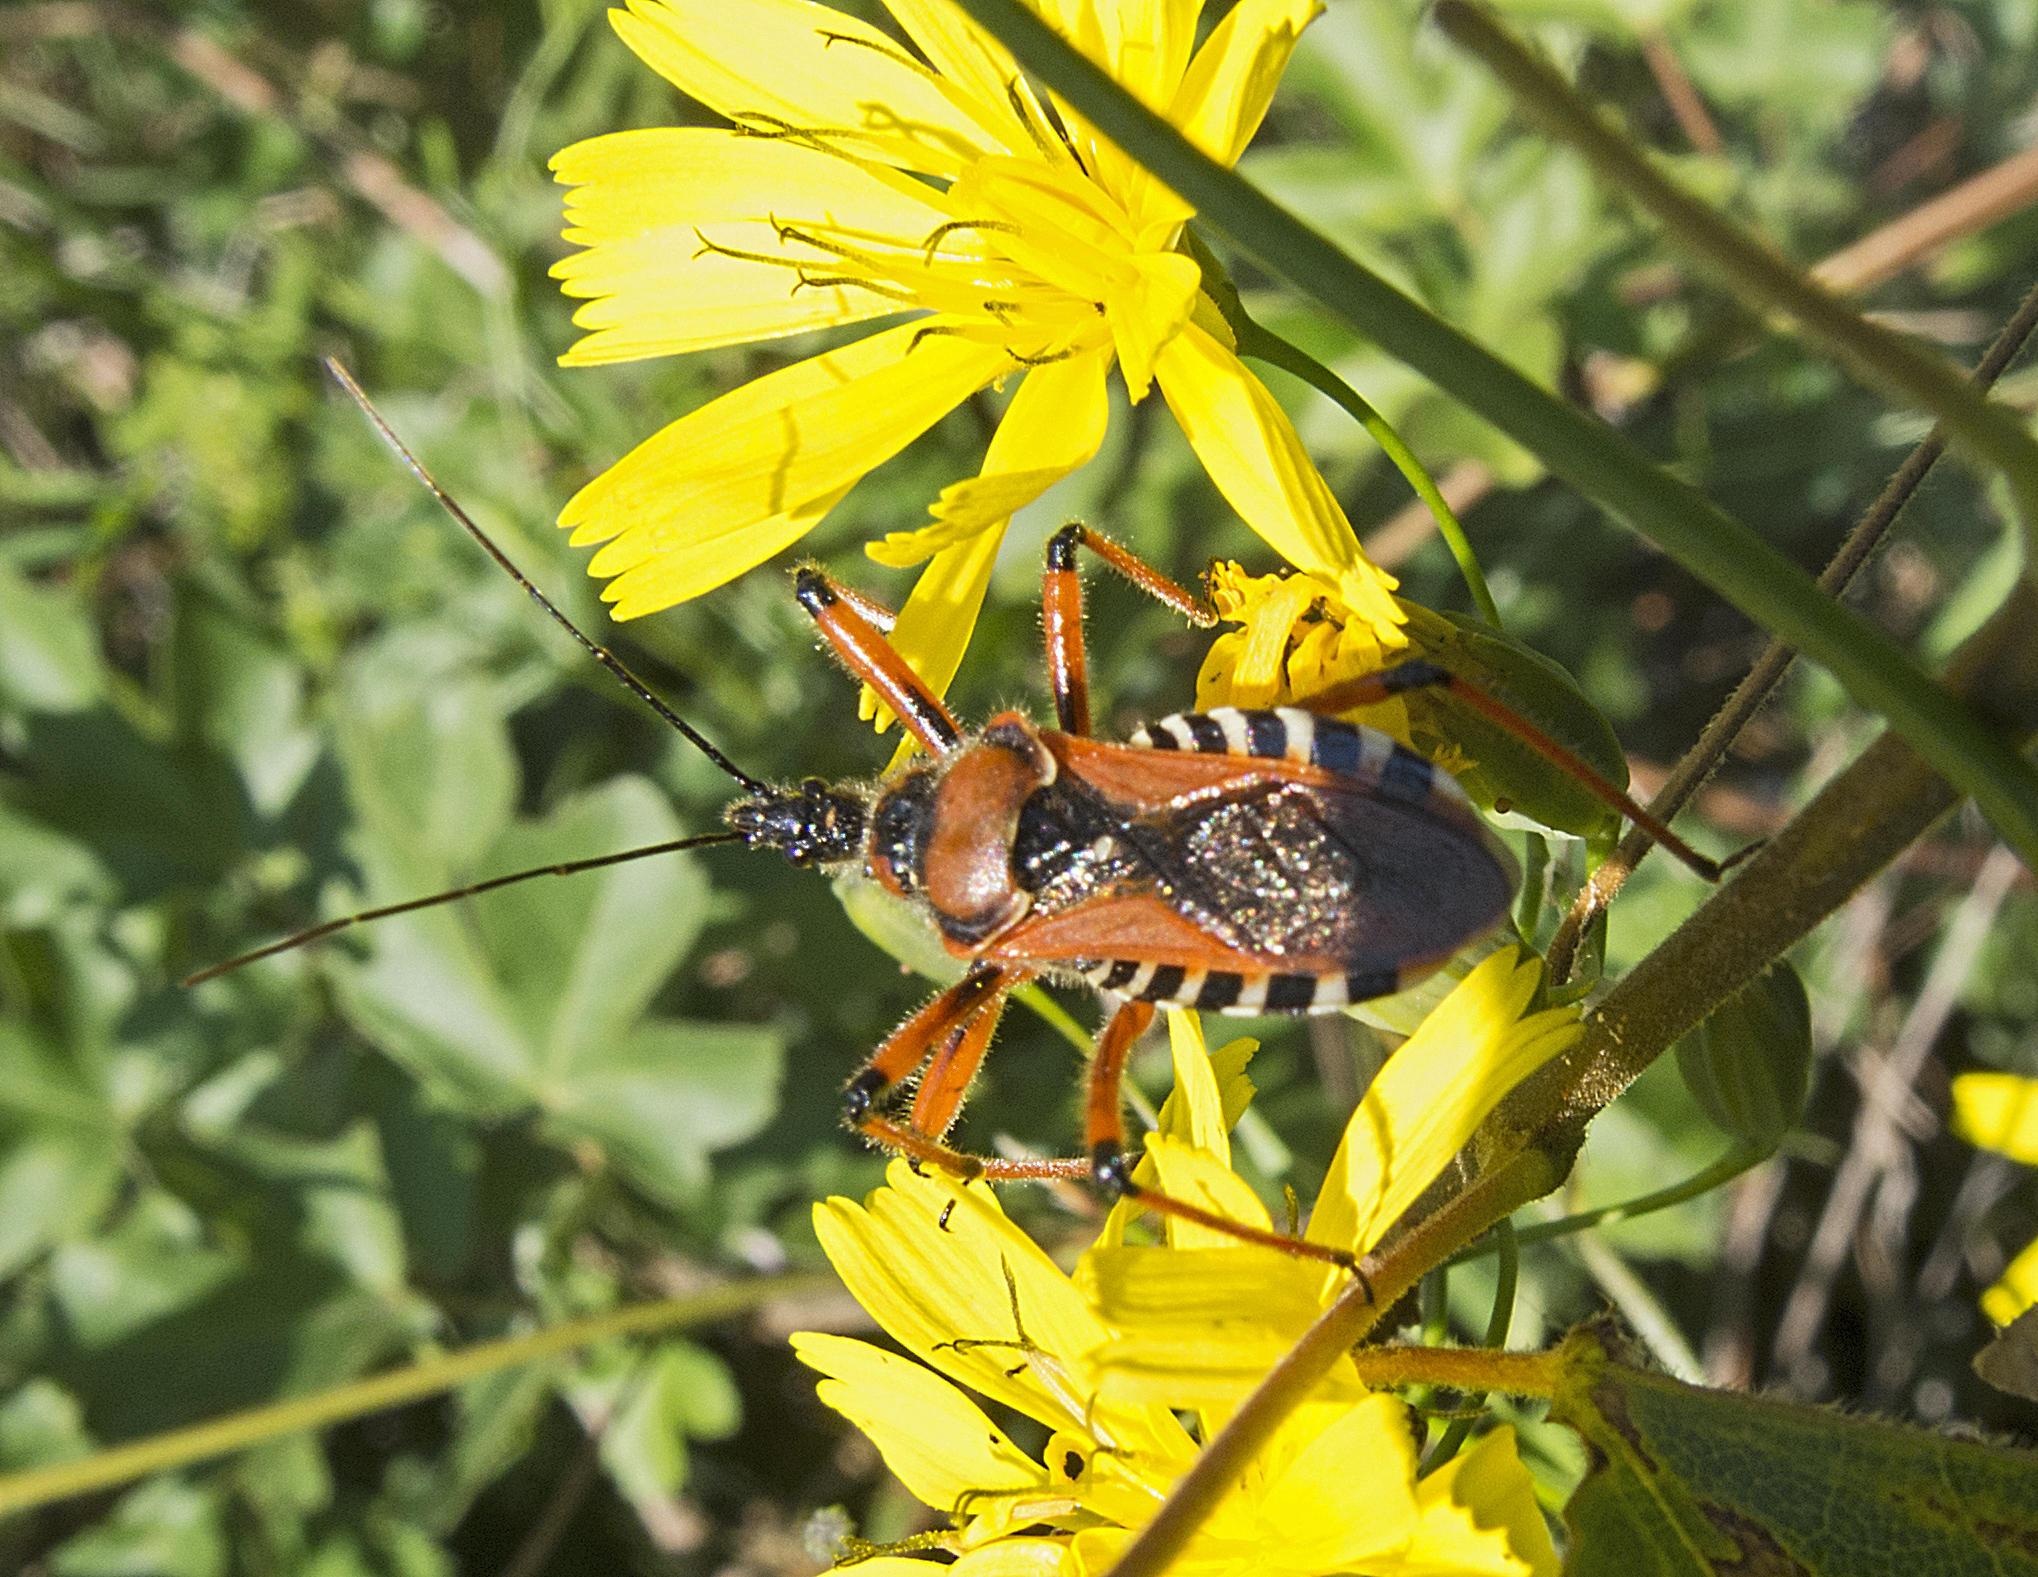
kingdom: Animalia
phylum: Arthropoda
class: Insecta
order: Hemiptera
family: Reduviidae
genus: Rhynocoris
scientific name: Rhynocoris iracundus
